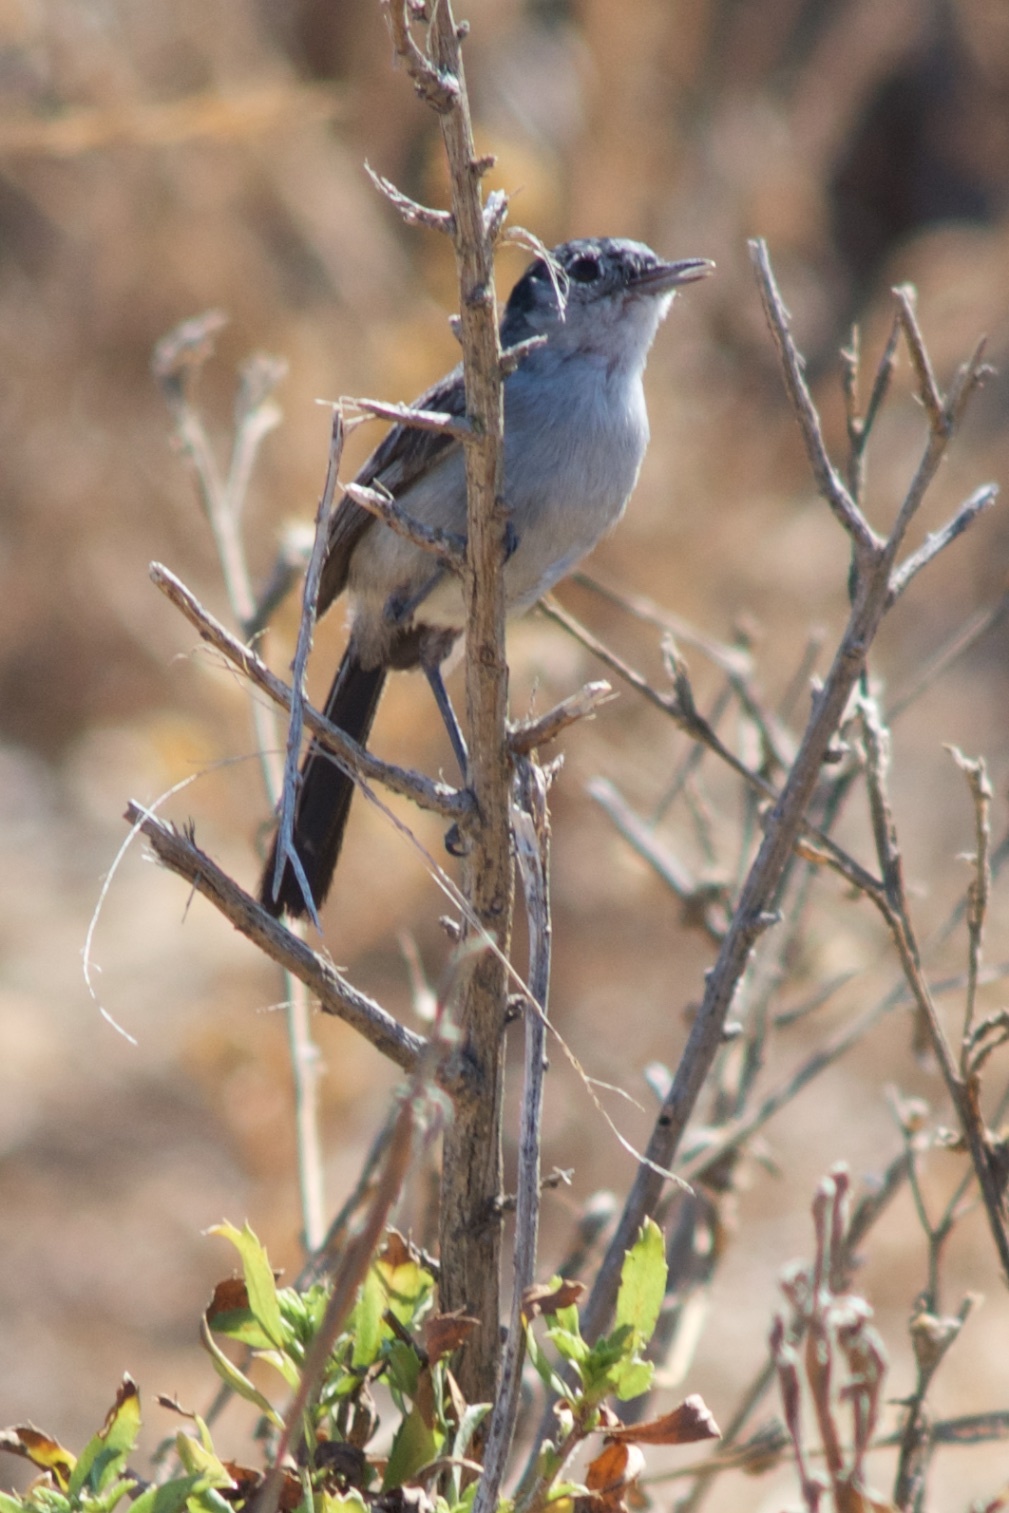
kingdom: Animalia
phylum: Chordata
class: Aves
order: Passeriformes
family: Polioptilidae
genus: Polioptila
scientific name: Polioptila californica
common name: California gnatcatcher
